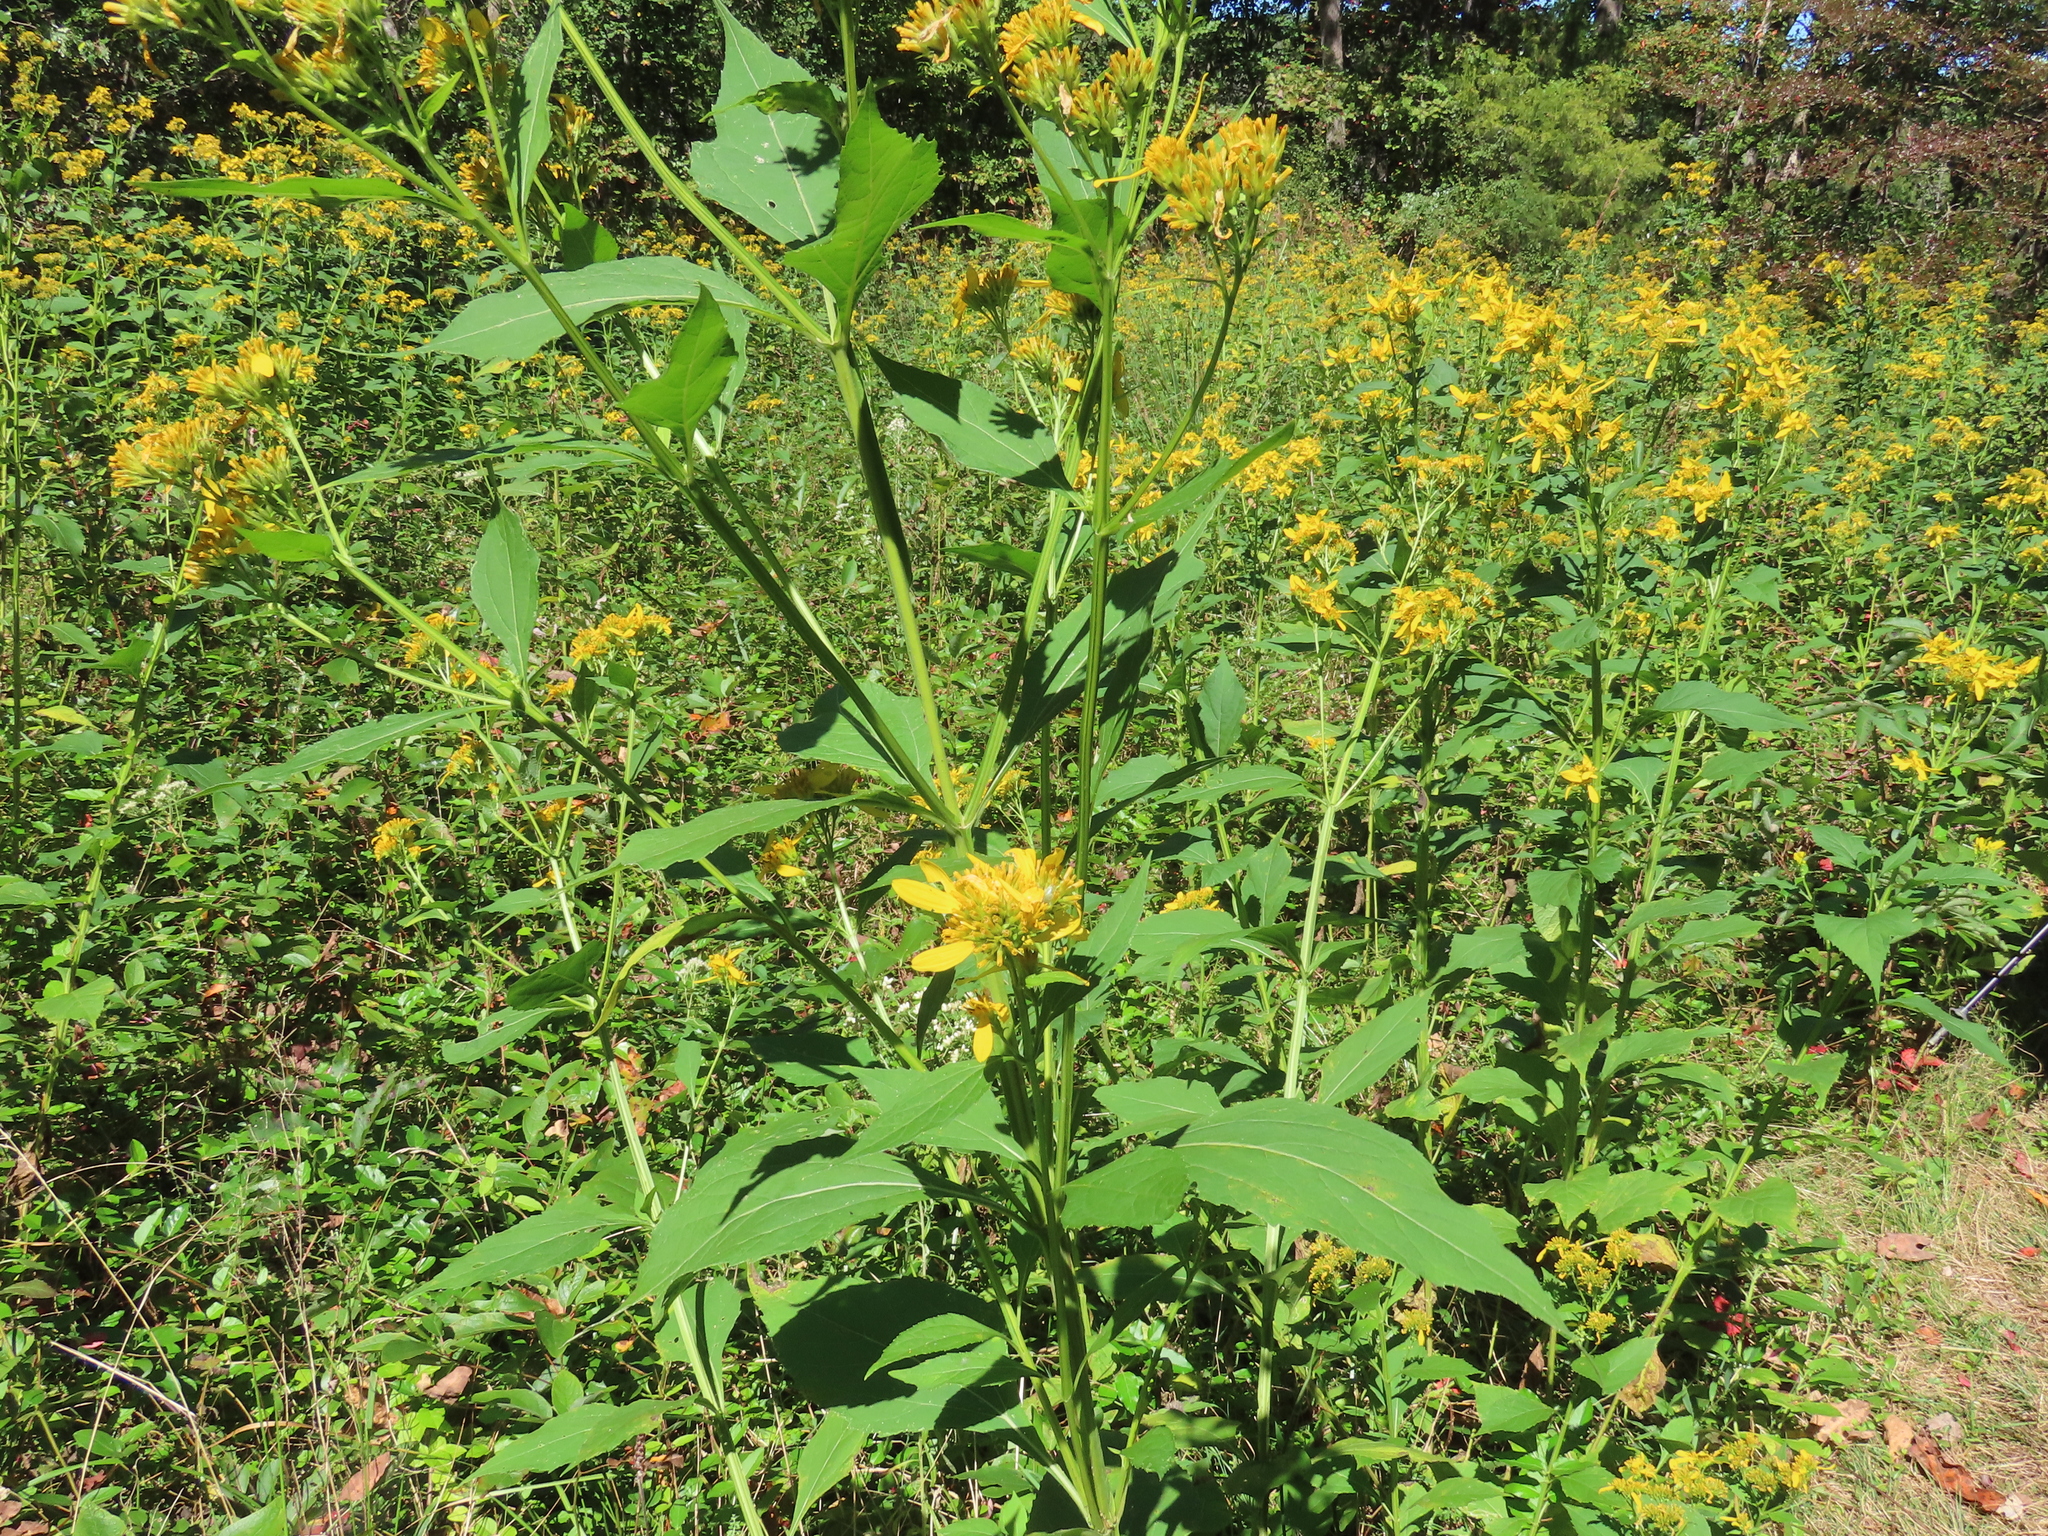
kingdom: Plantae
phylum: Tracheophyta
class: Magnoliopsida
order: Asterales
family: Asteraceae
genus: Verbesina
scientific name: Verbesina occidentalis
